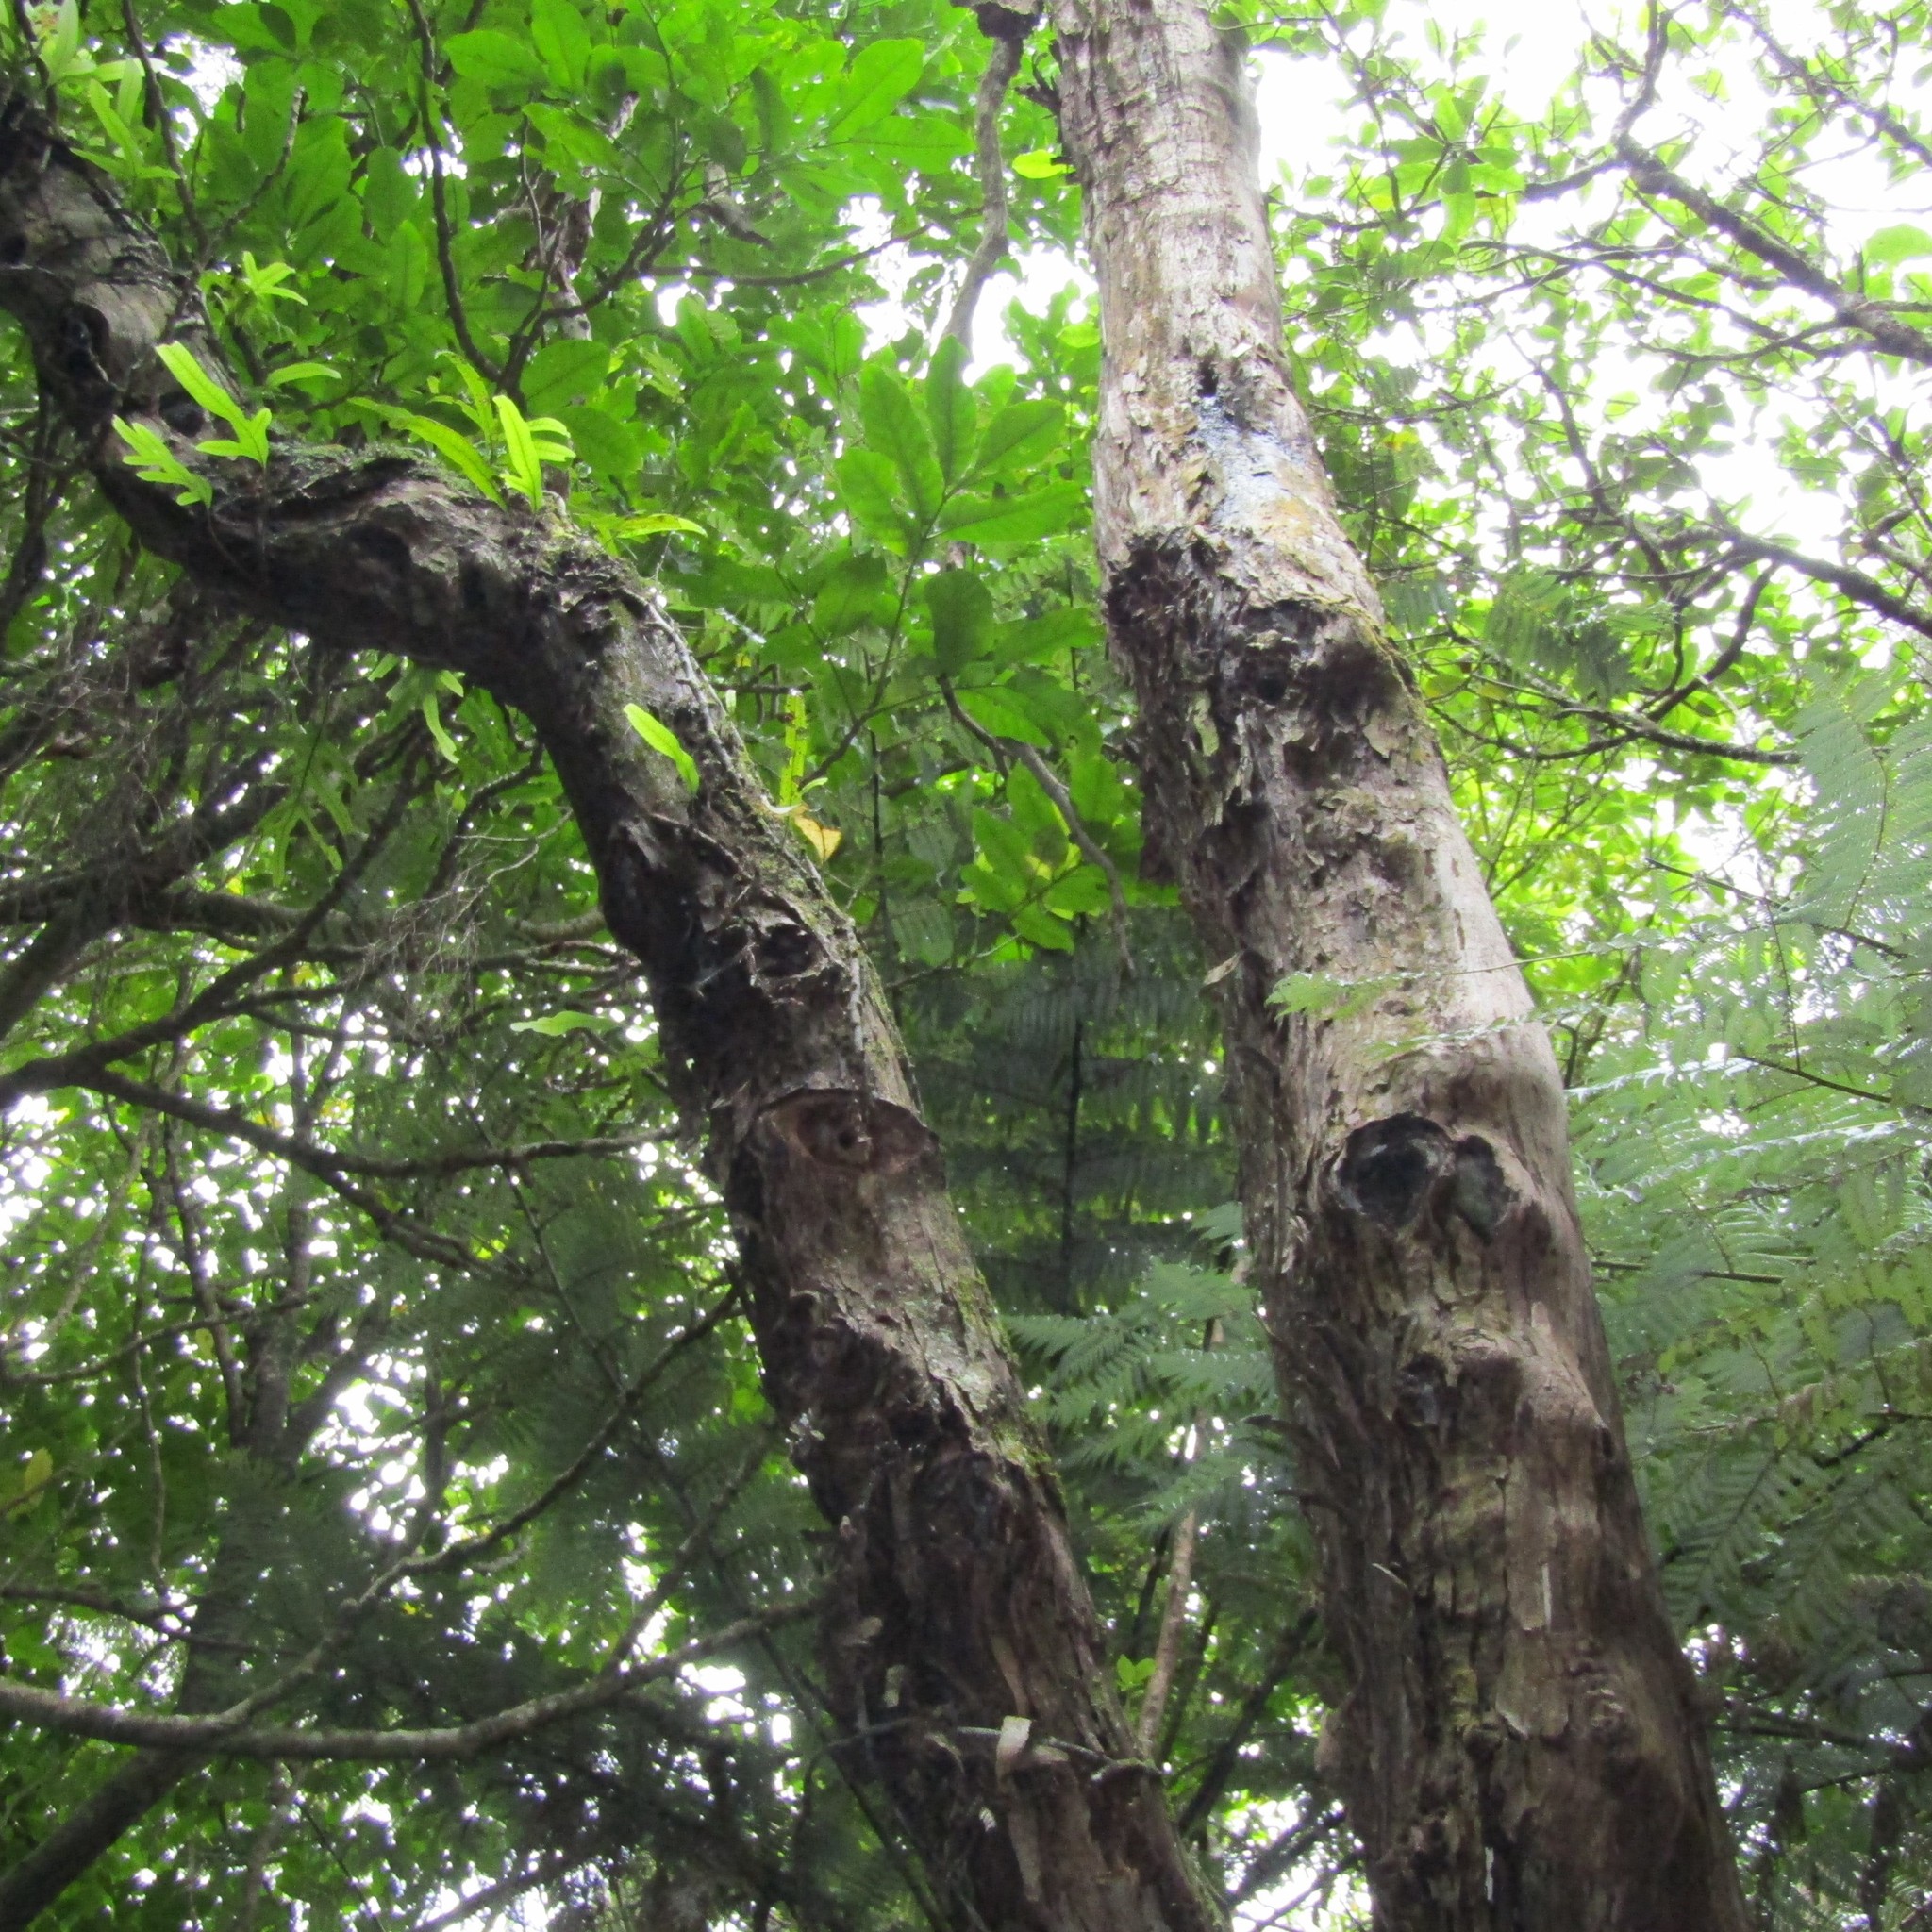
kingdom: Plantae
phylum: Tracheophyta
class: Magnoliopsida
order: Myrtales
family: Myrtaceae
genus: Kunzea
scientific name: Kunzea ericoides
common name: Burgan
